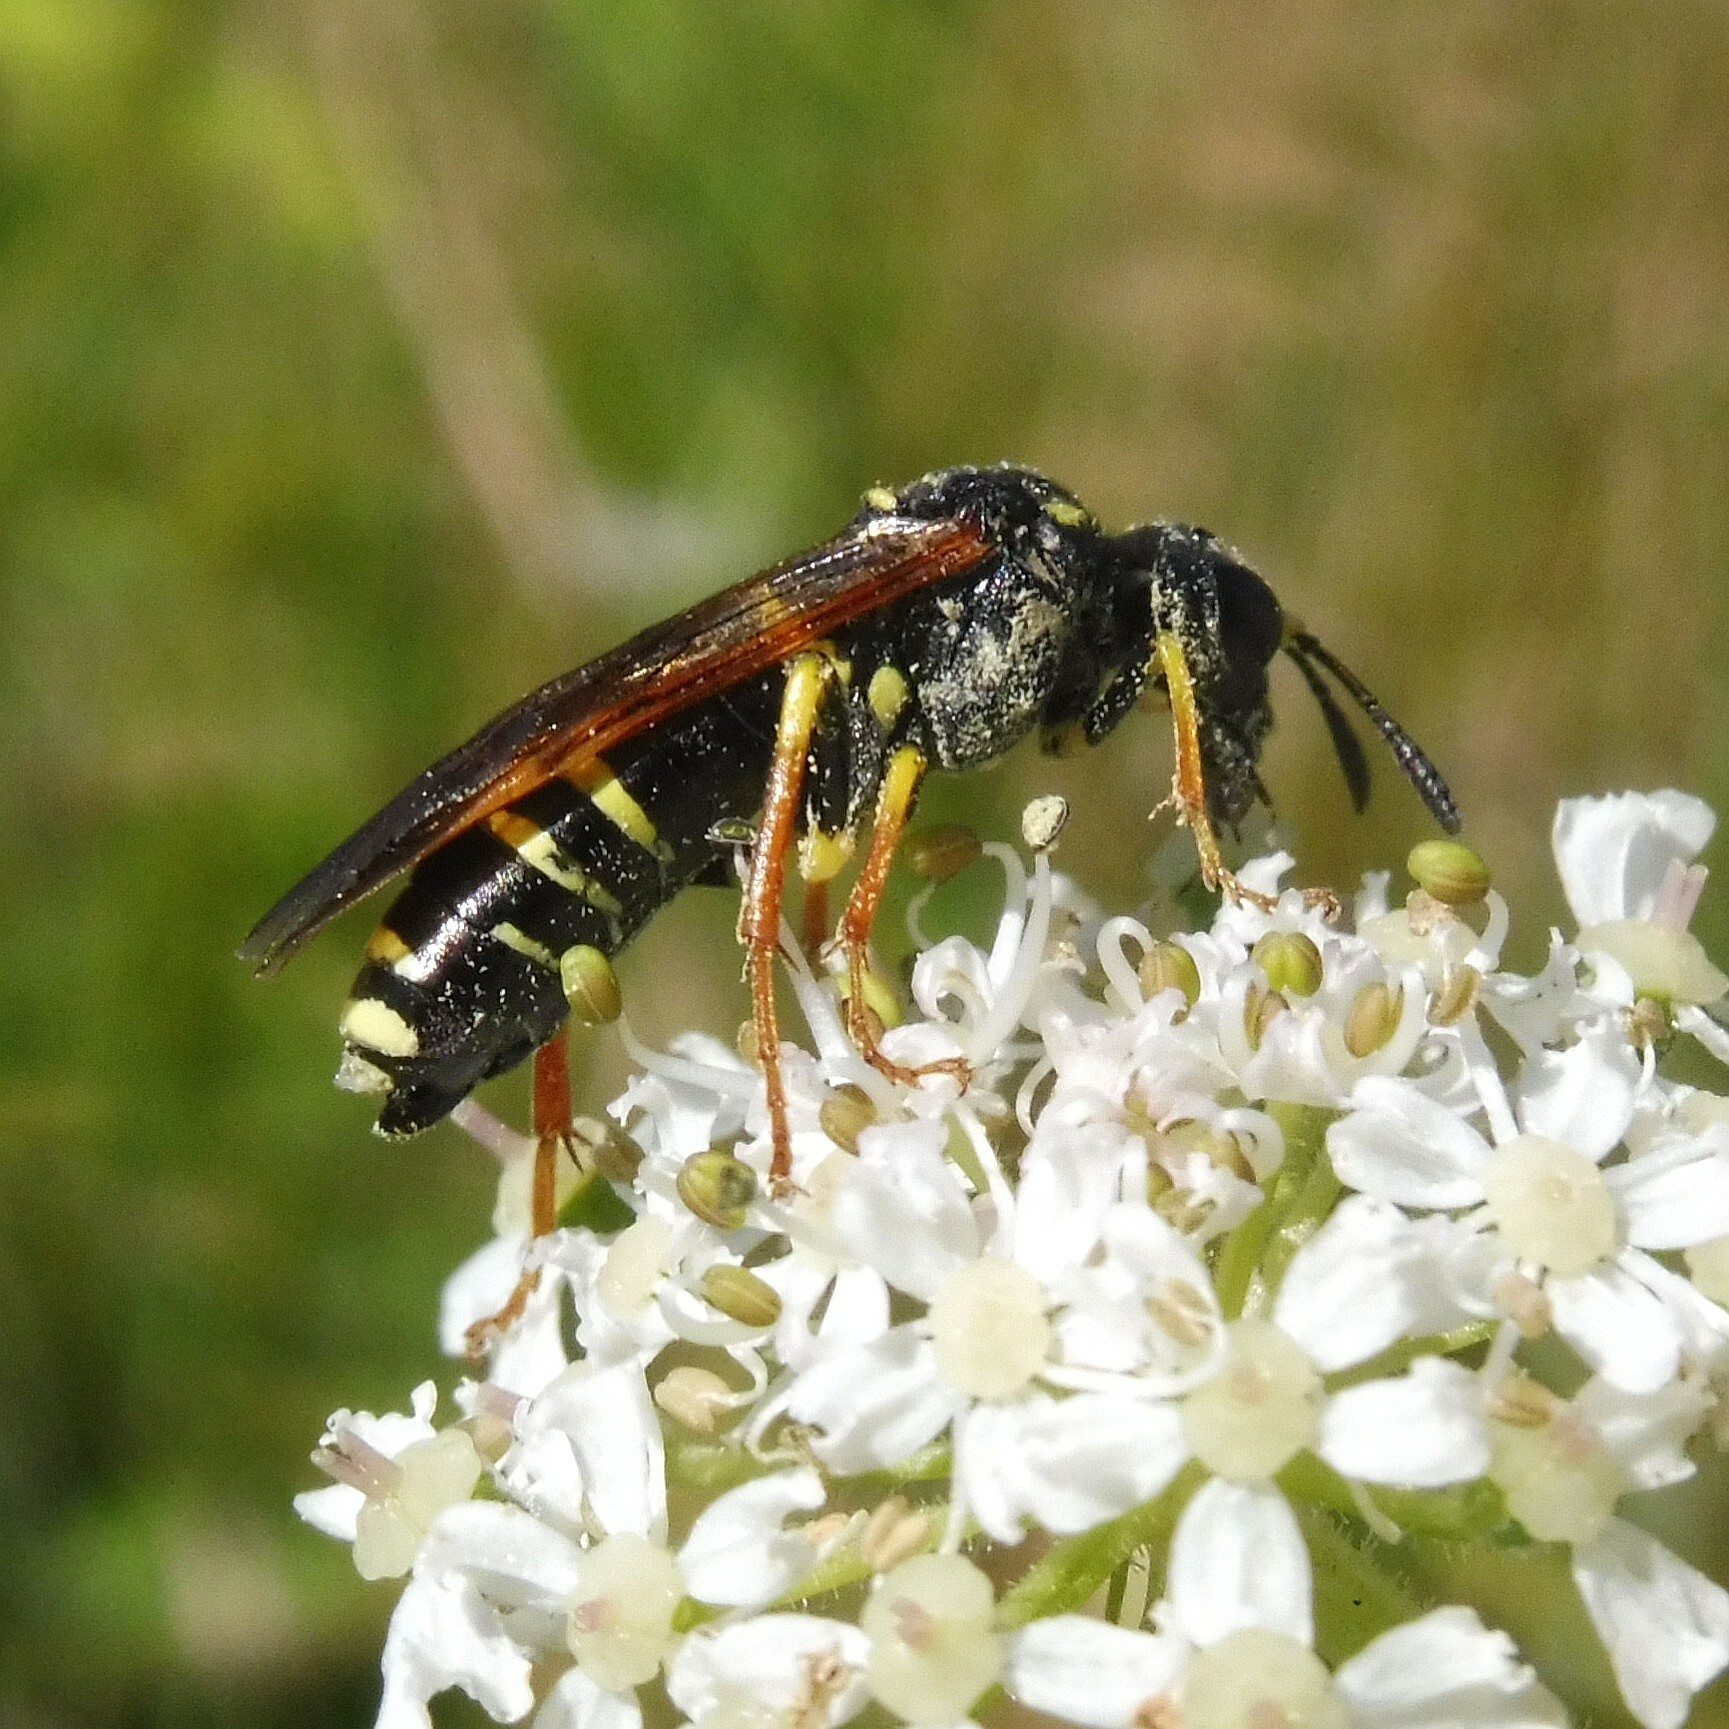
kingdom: Animalia
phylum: Arthropoda
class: Insecta
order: Hymenoptera
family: Tenthredinidae
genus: Tenthredo
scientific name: Tenthredo omissa
